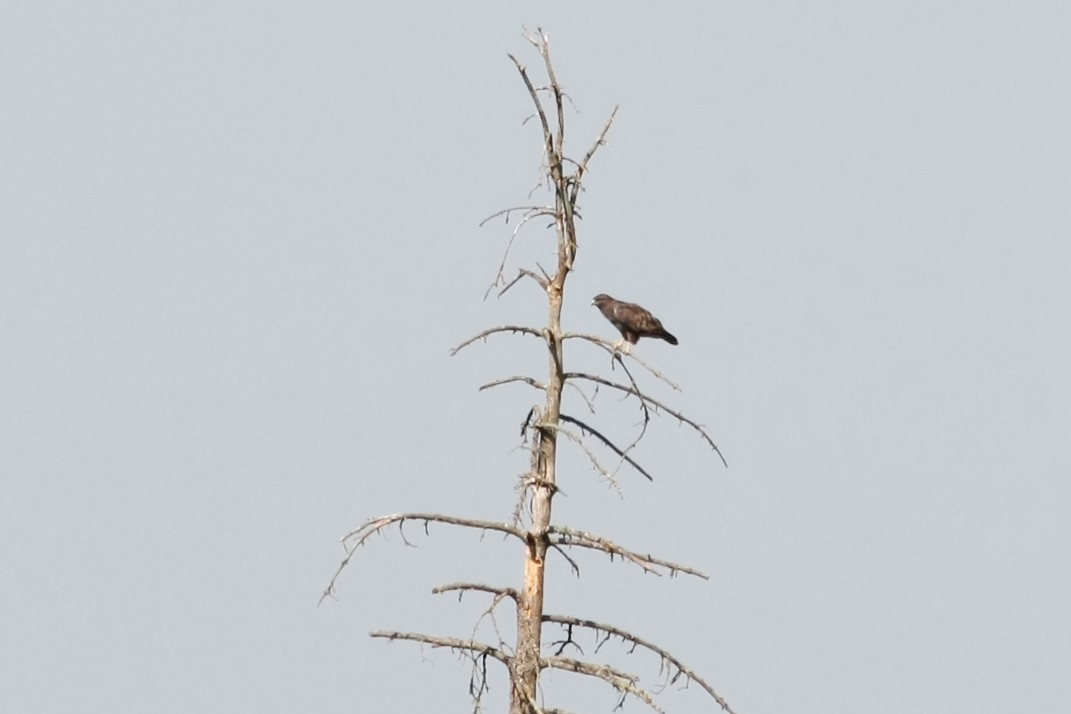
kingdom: Animalia
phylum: Chordata
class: Aves
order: Accipitriformes
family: Accipitridae
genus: Buteo
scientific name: Buteo buteo
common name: Common buzzard
